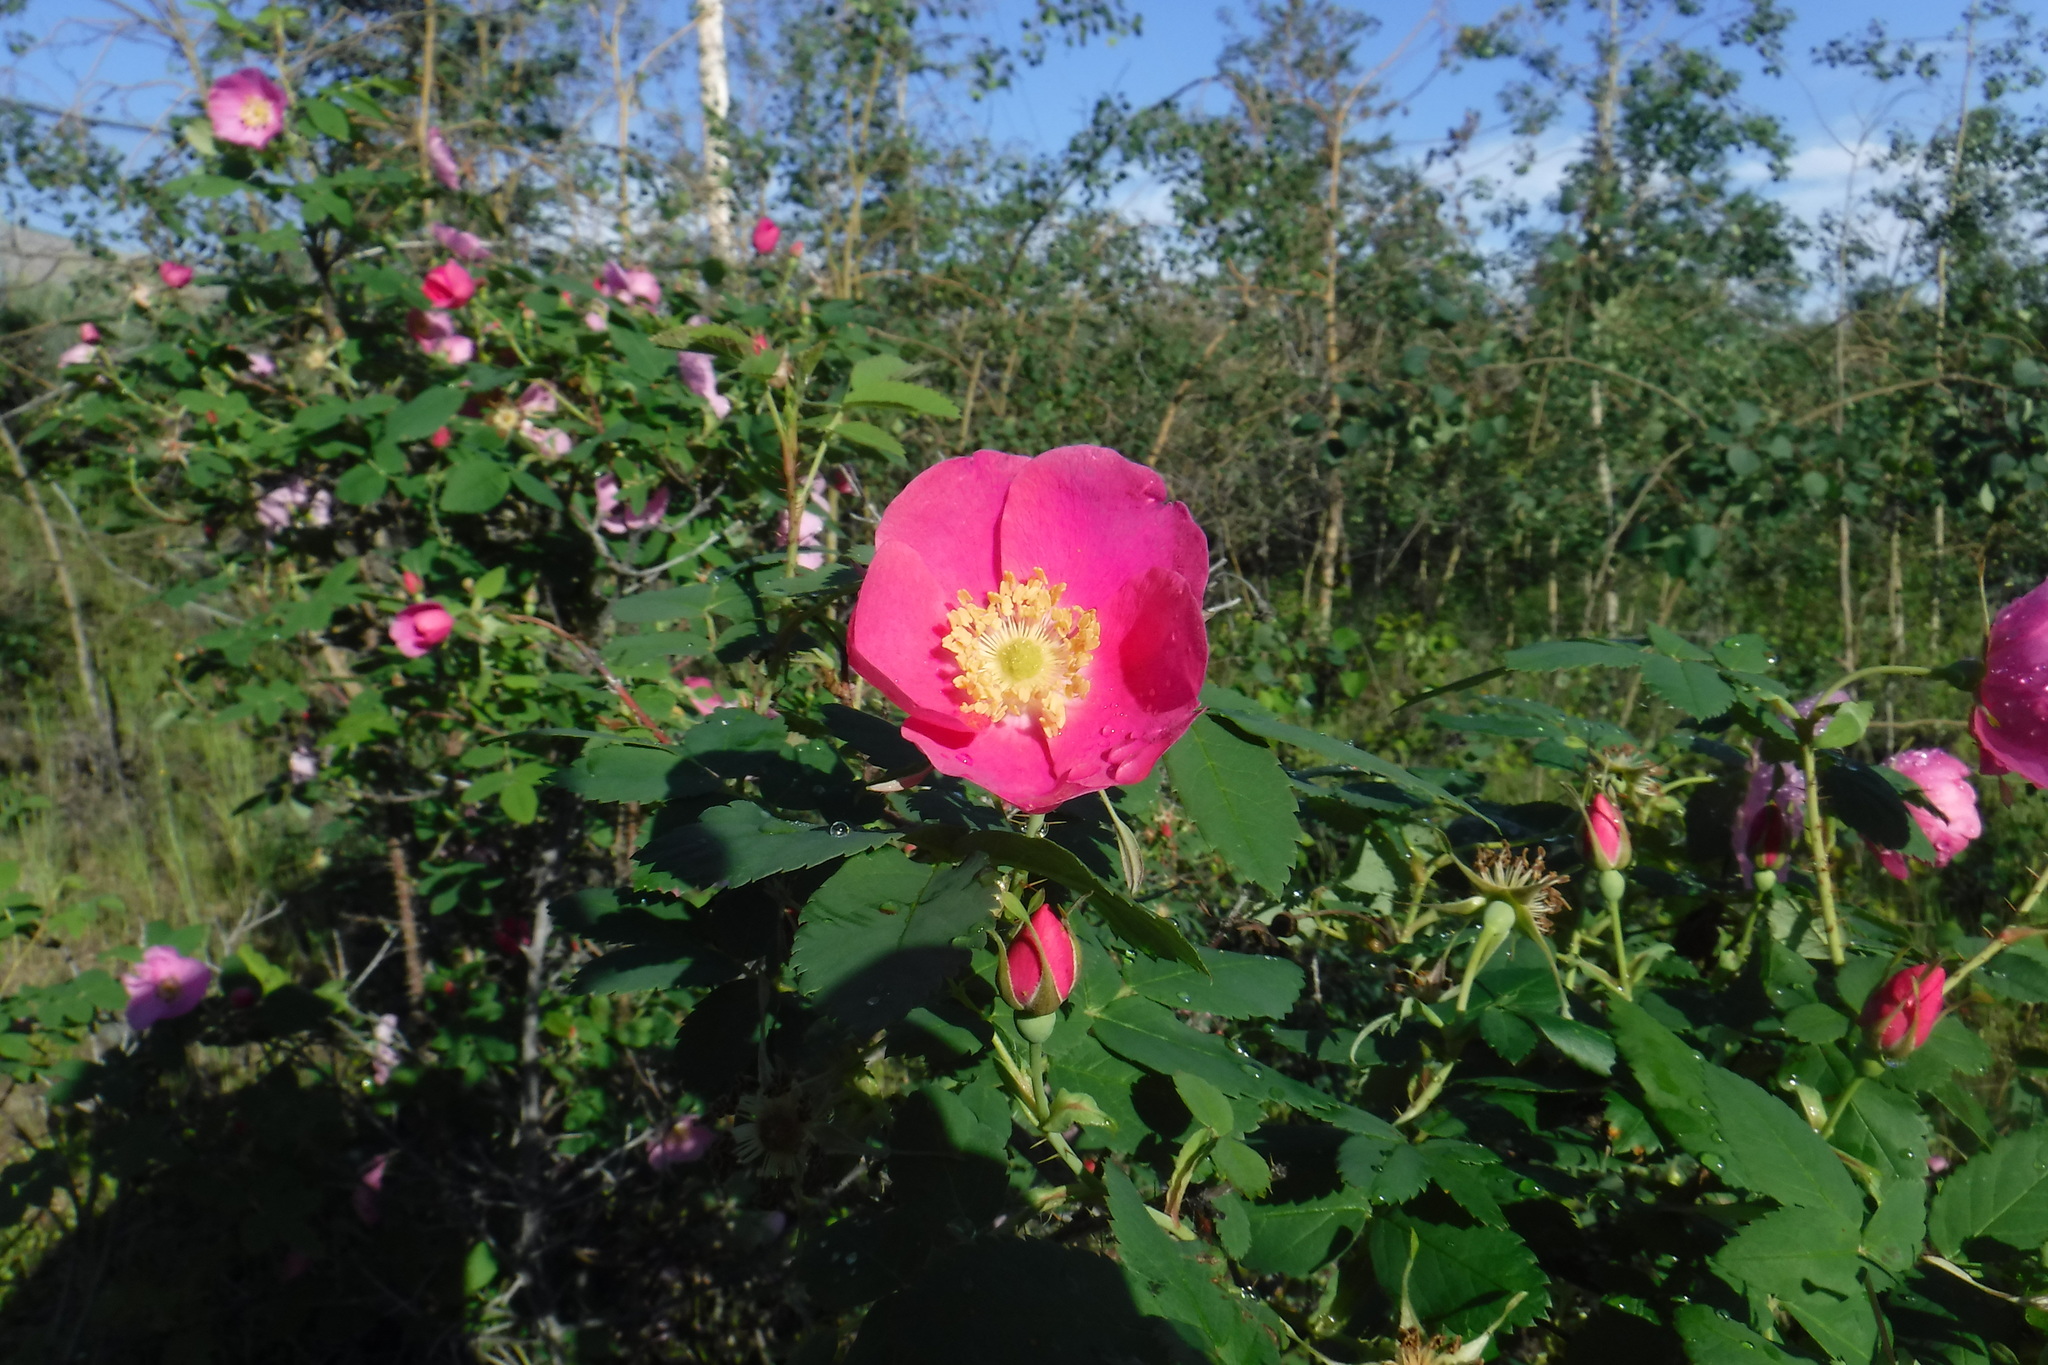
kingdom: Plantae
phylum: Tracheophyta
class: Magnoliopsida
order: Rosales
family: Rosaceae
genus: Rosa
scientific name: Rosa acicularis
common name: Prickly rose
